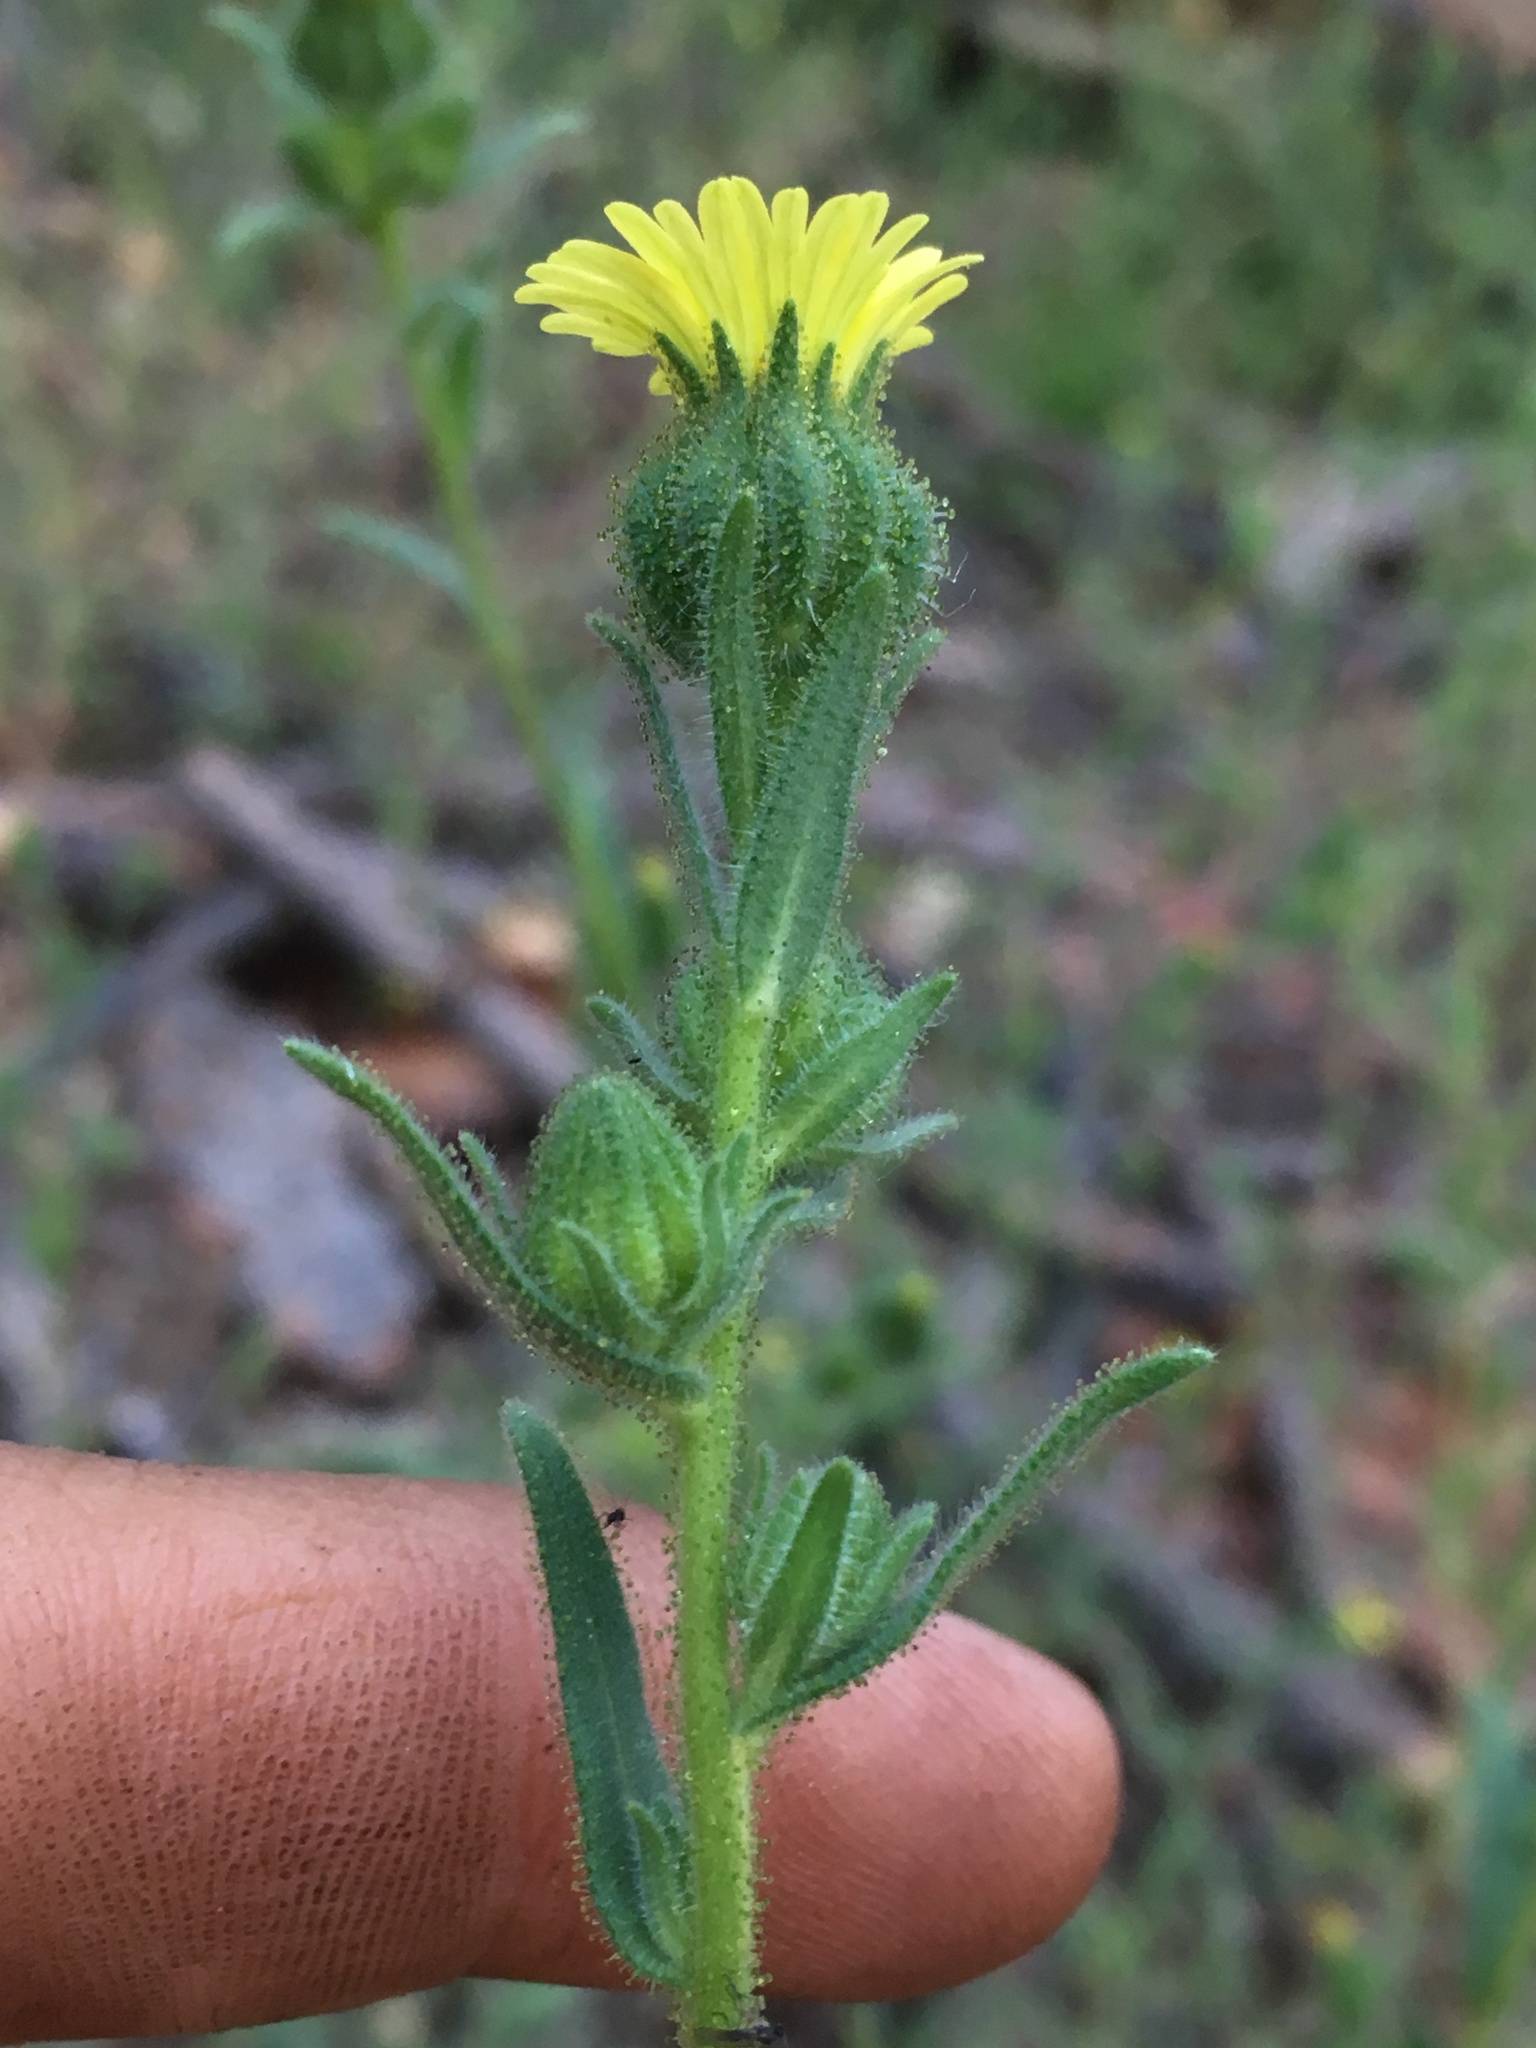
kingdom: Plantae
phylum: Tracheophyta
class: Magnoliopsida
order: Asterales
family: Asteraceae
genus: Madia
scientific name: Madia gracilis
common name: Grassy tarweed
